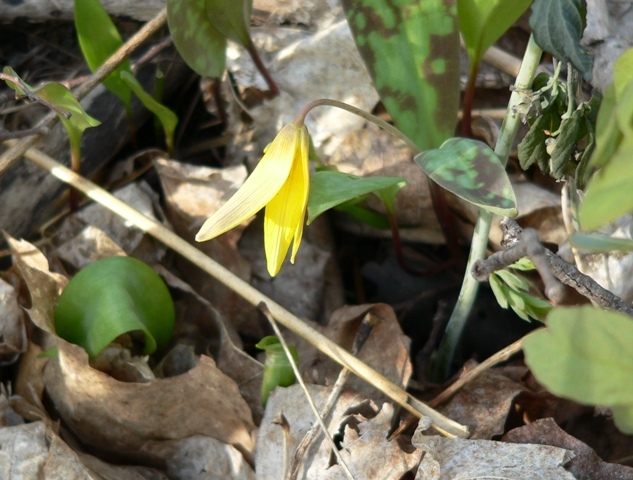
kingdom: Plantae
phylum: Tracheophyta
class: Liliopsida
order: Liliales
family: Liliaceae
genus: Erythronium
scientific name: Erythronium americanum
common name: Yellow adder's-tongue
